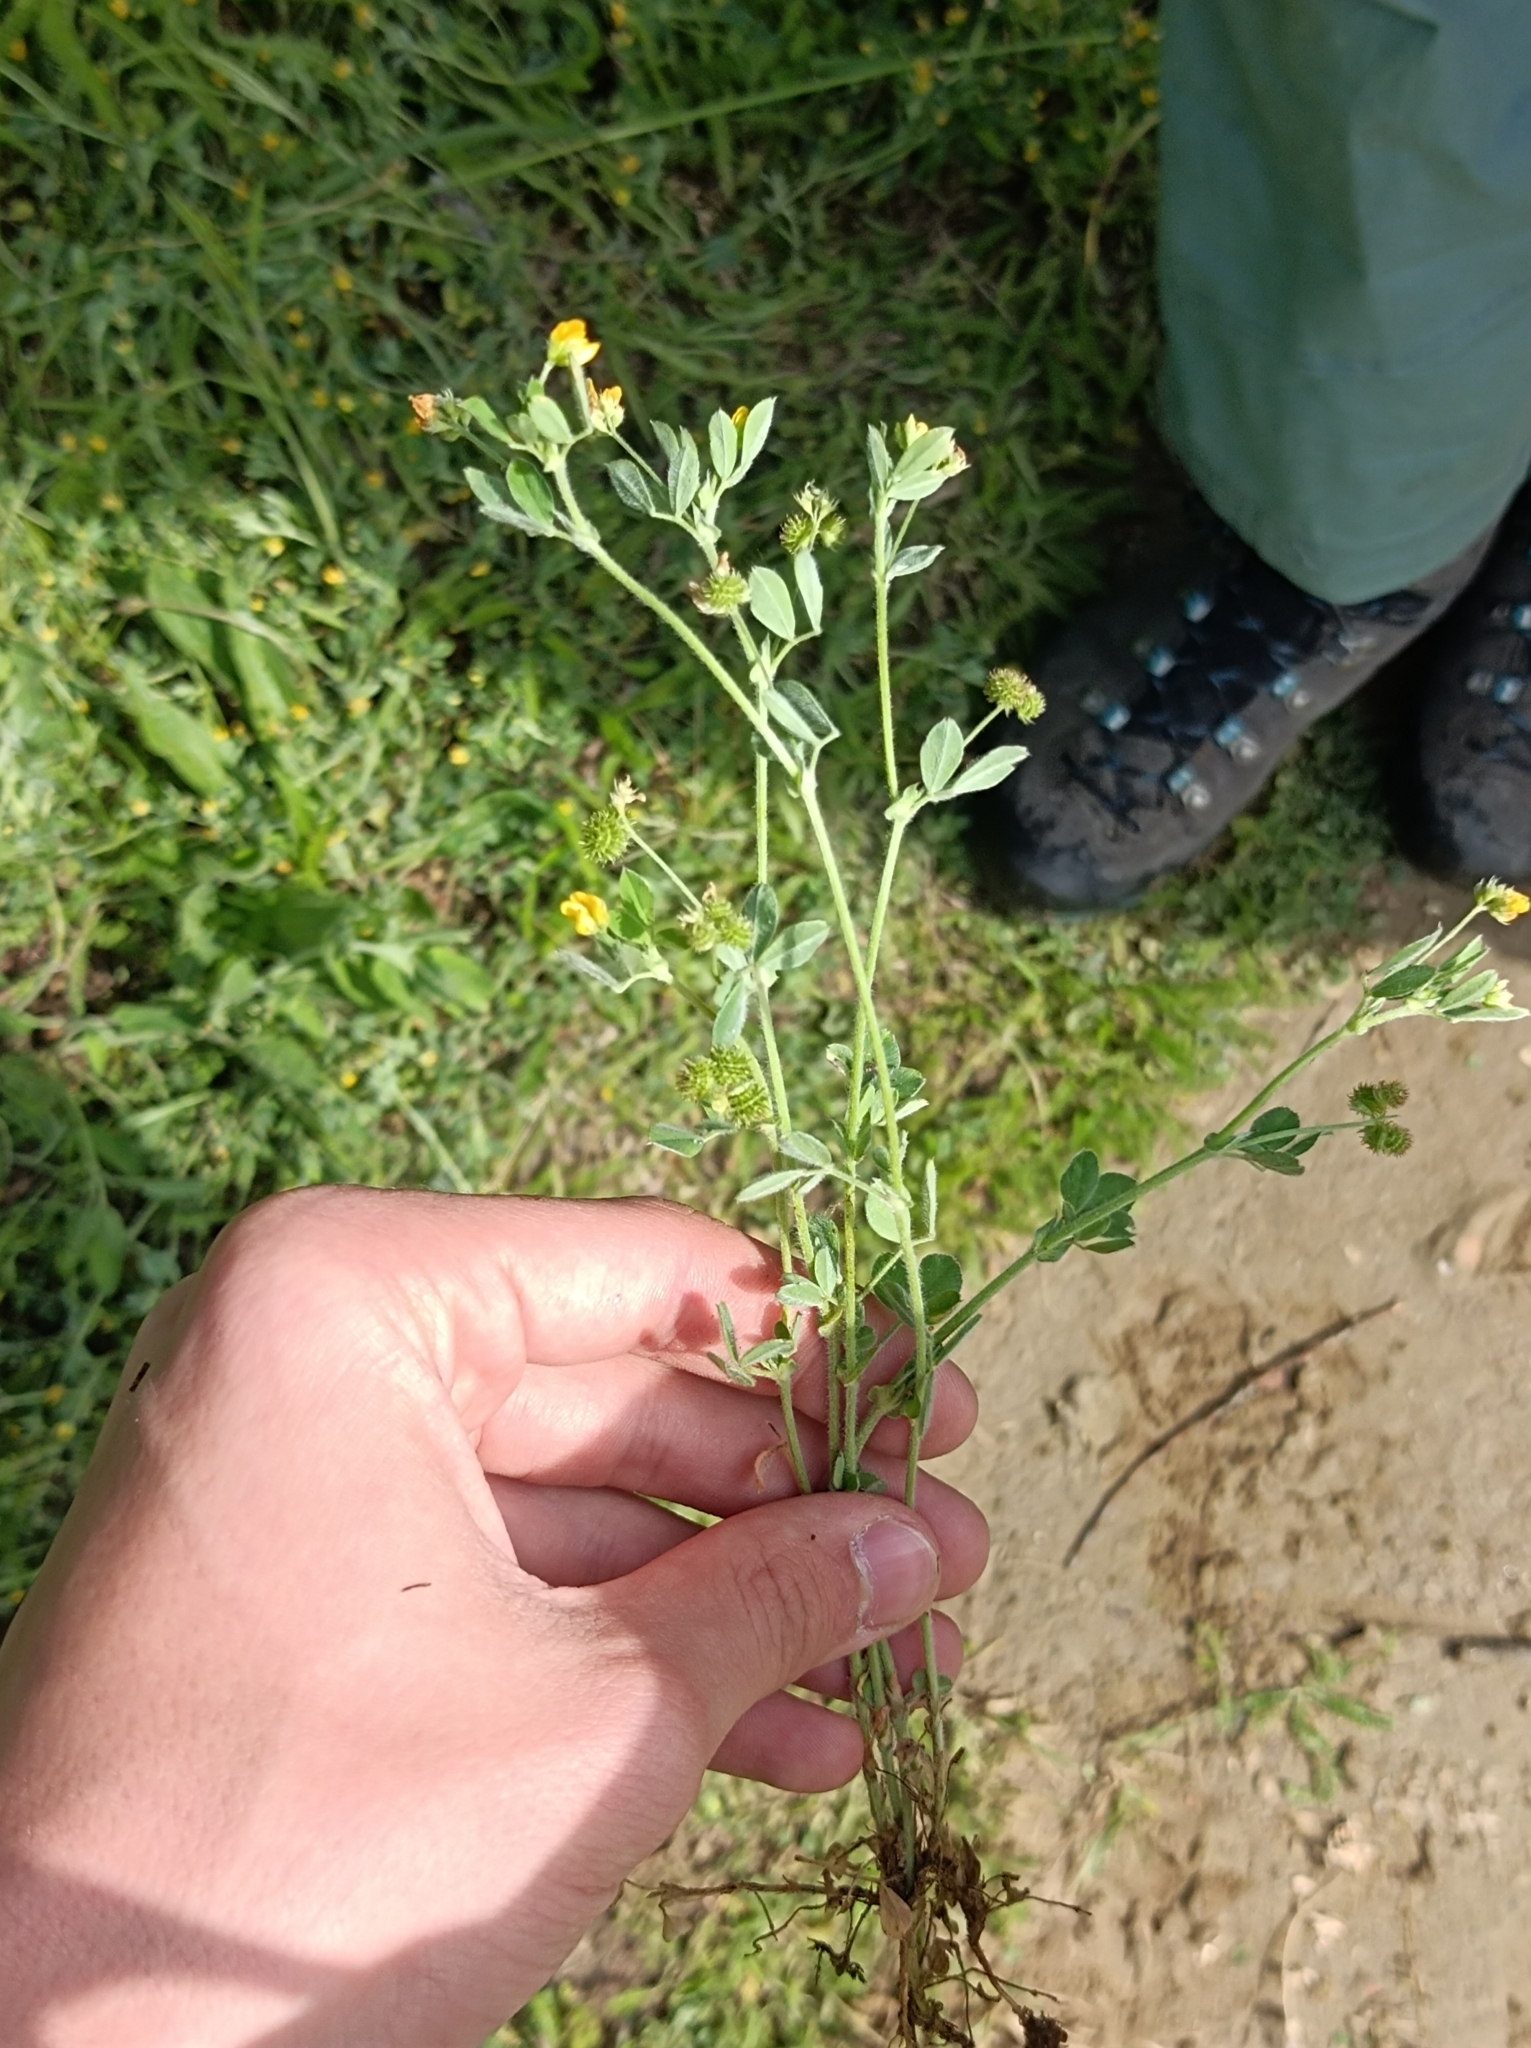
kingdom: Plantae
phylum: Tracheophyta
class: Magnoliopsida
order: Fabales
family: Fabaceae
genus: Medicago
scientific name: Medicago minima
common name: Little bur-clover
